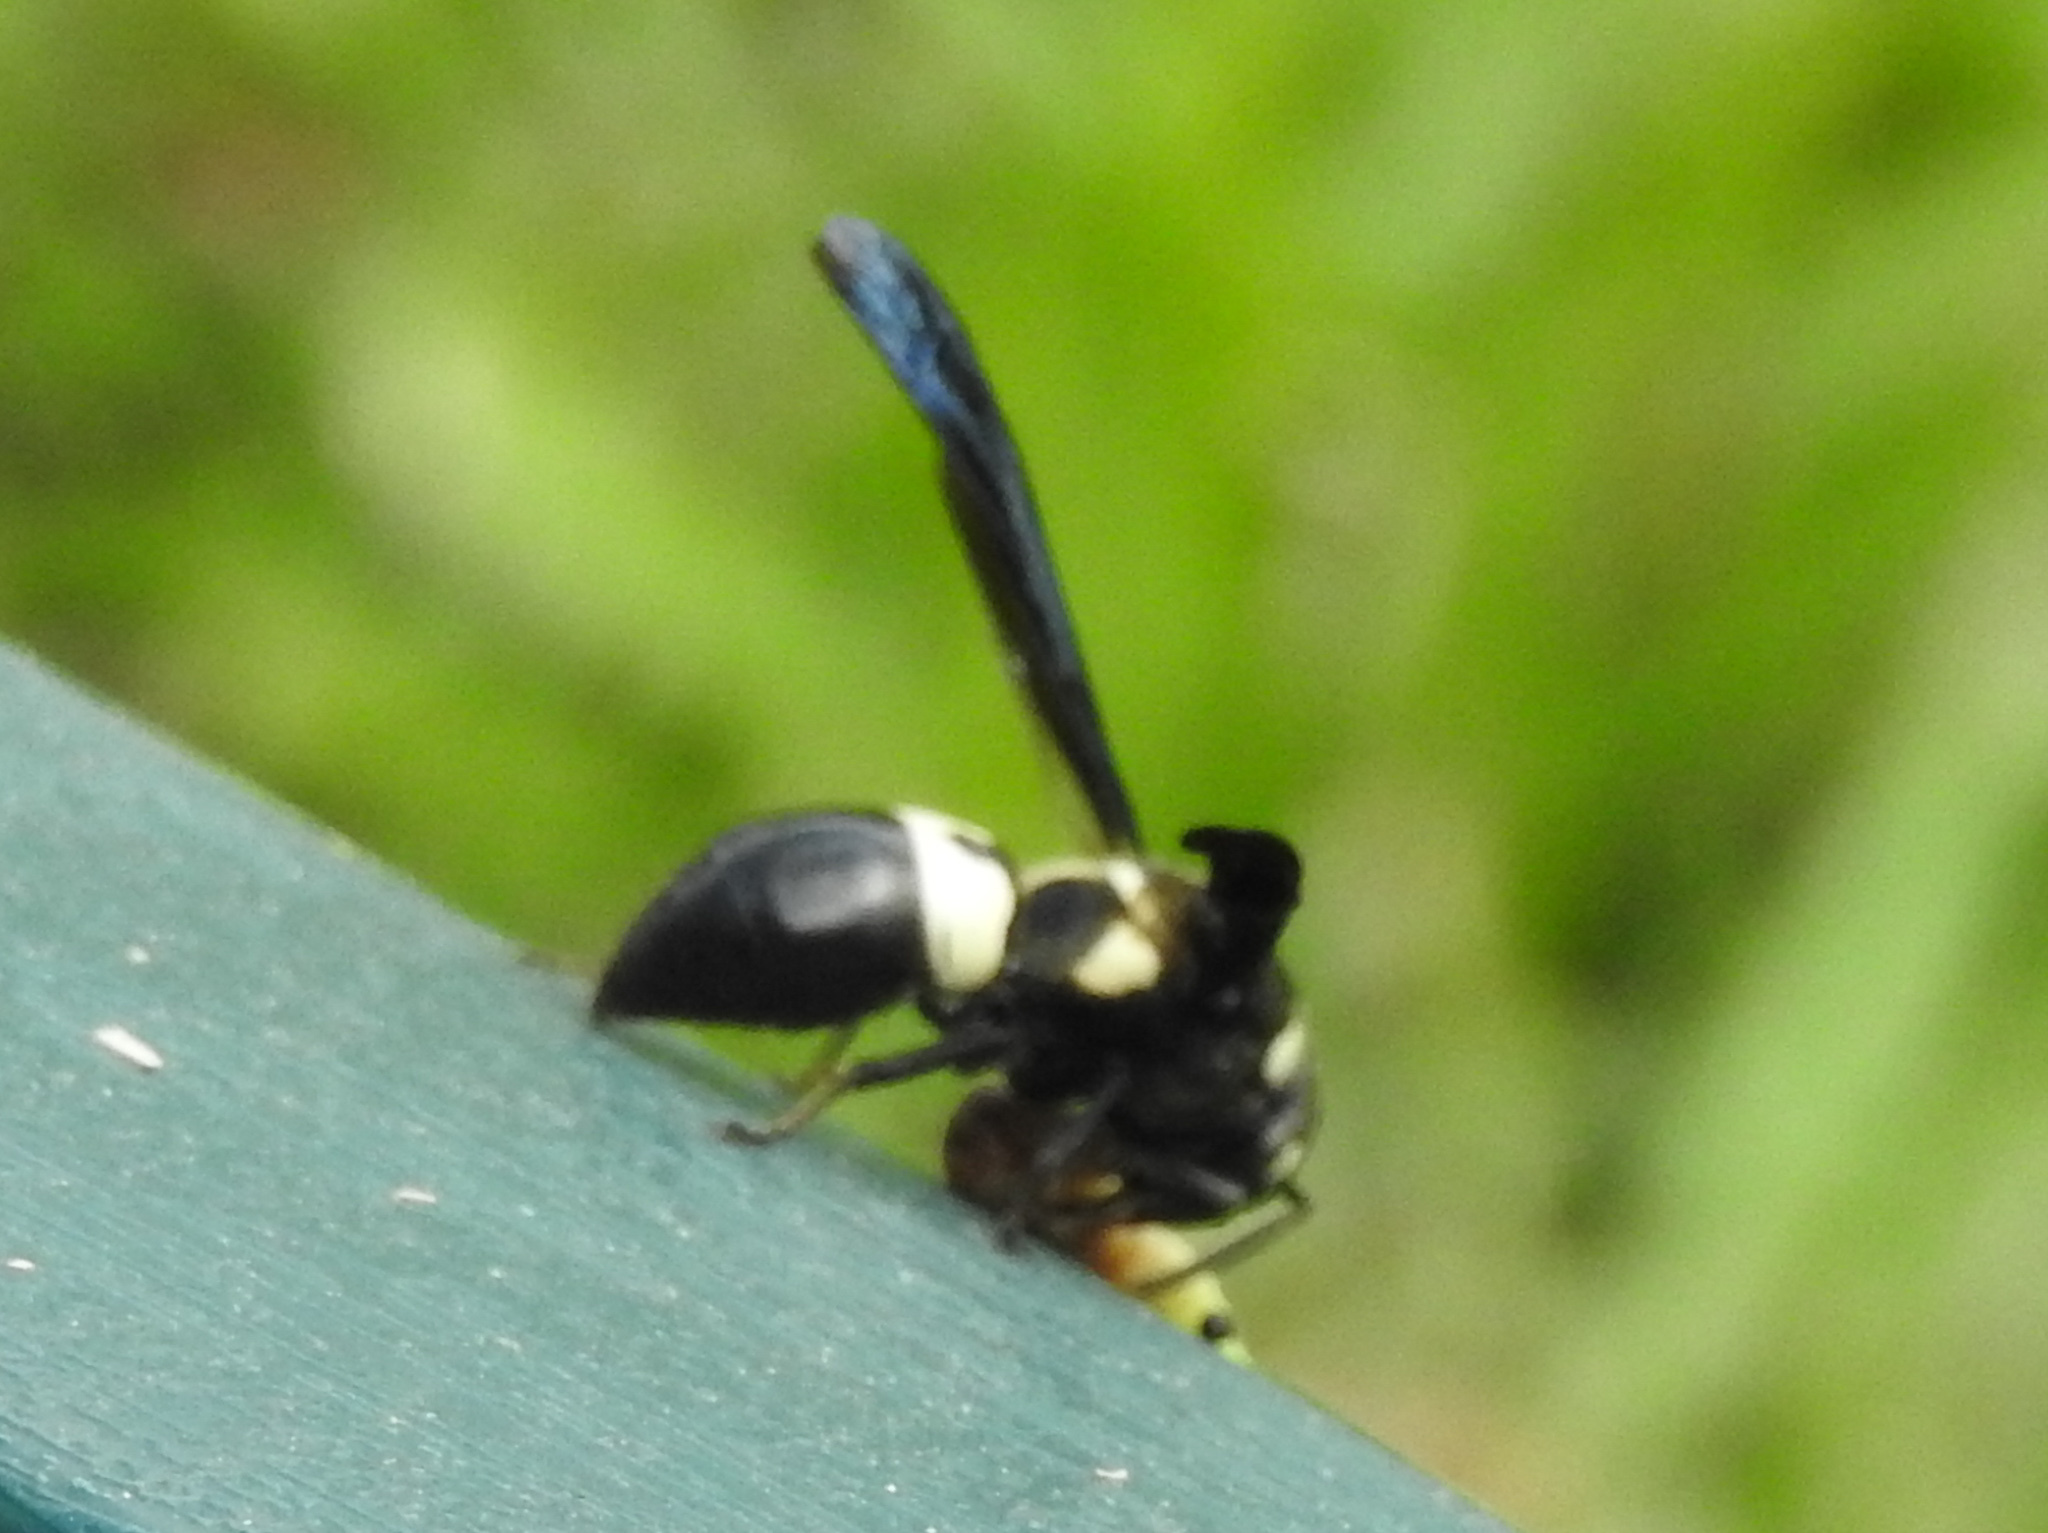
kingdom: Animalia
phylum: Arthropoda
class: Insecta
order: Hymenoptera
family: Eumenidae
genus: Euodynerus
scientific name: Euodynerus bidens
